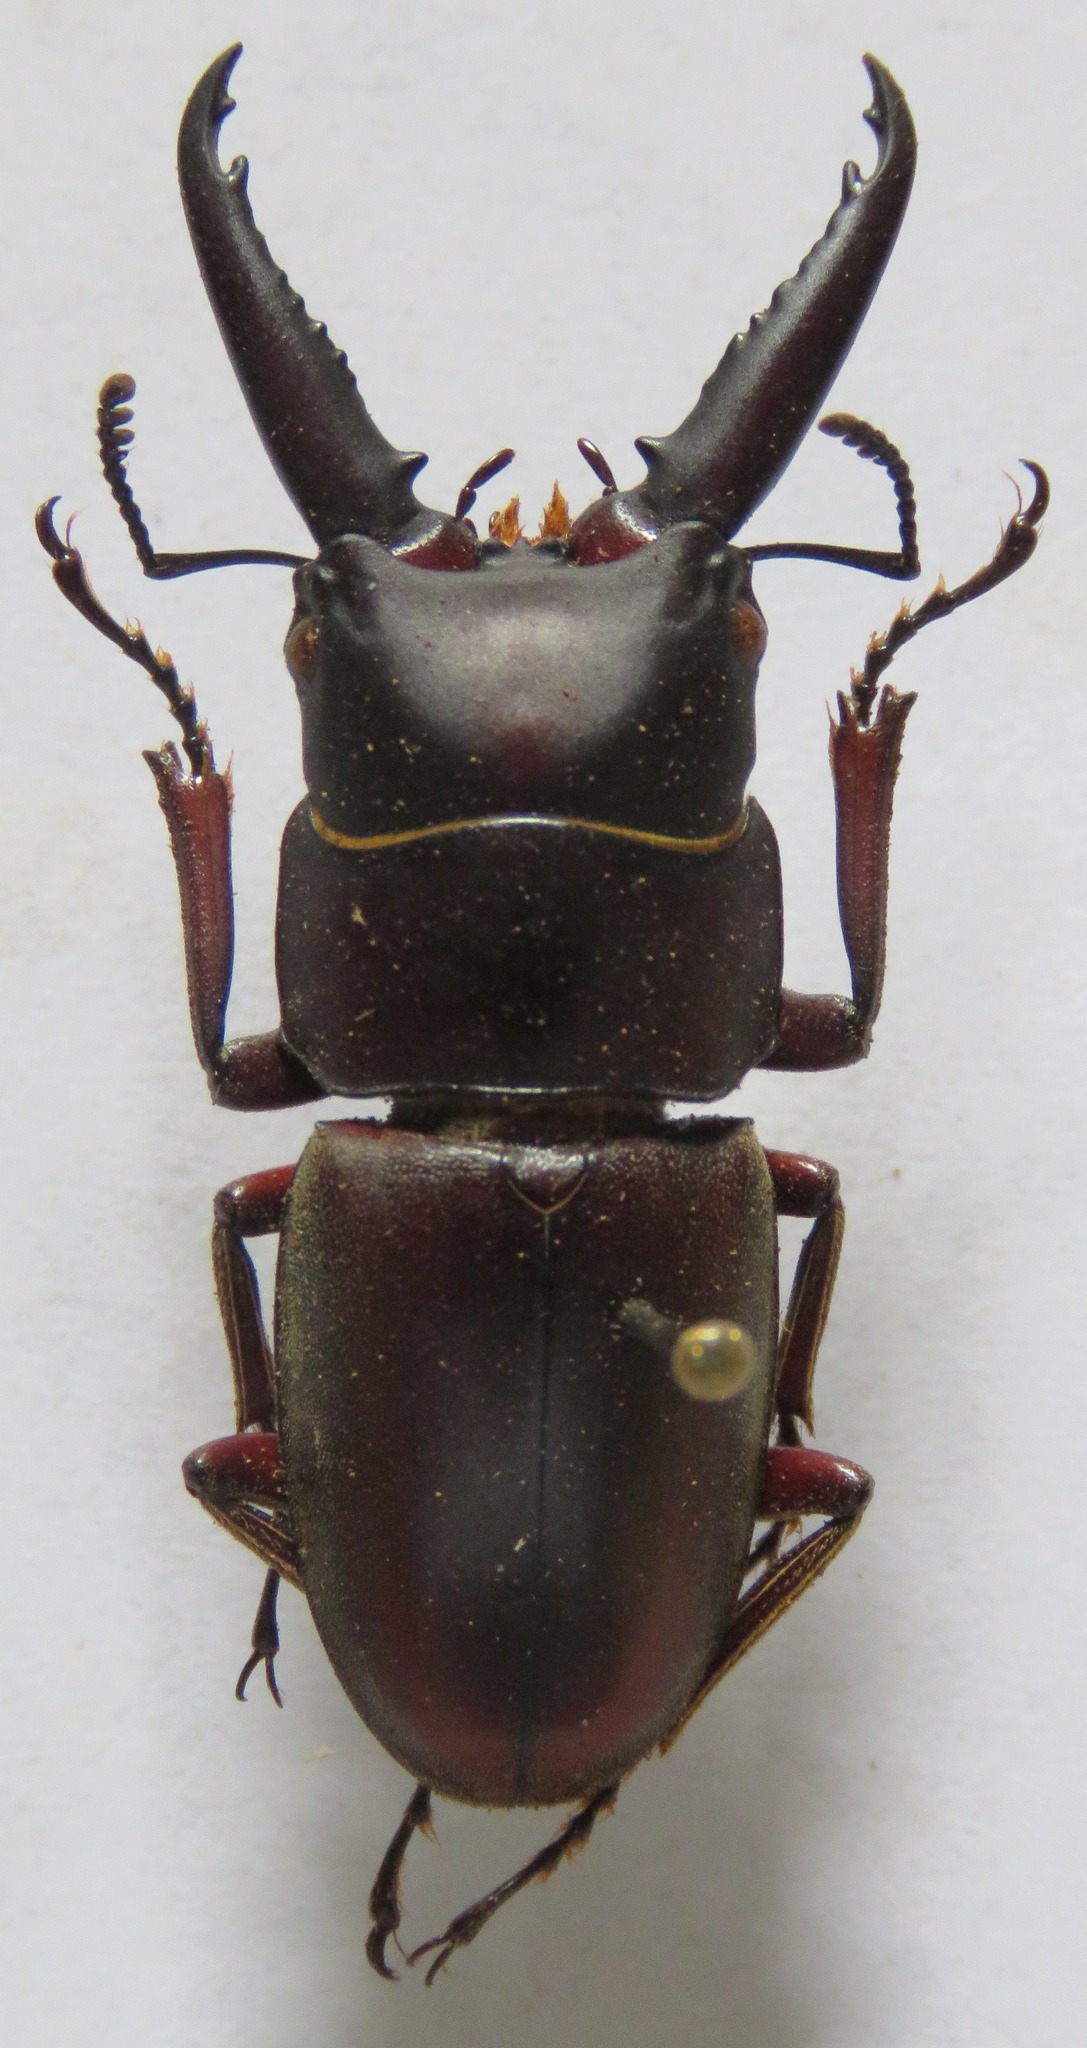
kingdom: Animalia
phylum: Arthropoda
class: Insecta
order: Coleoptera
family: Lucanidae
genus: Prosopocoilus
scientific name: Prosopocoilus mysticus
